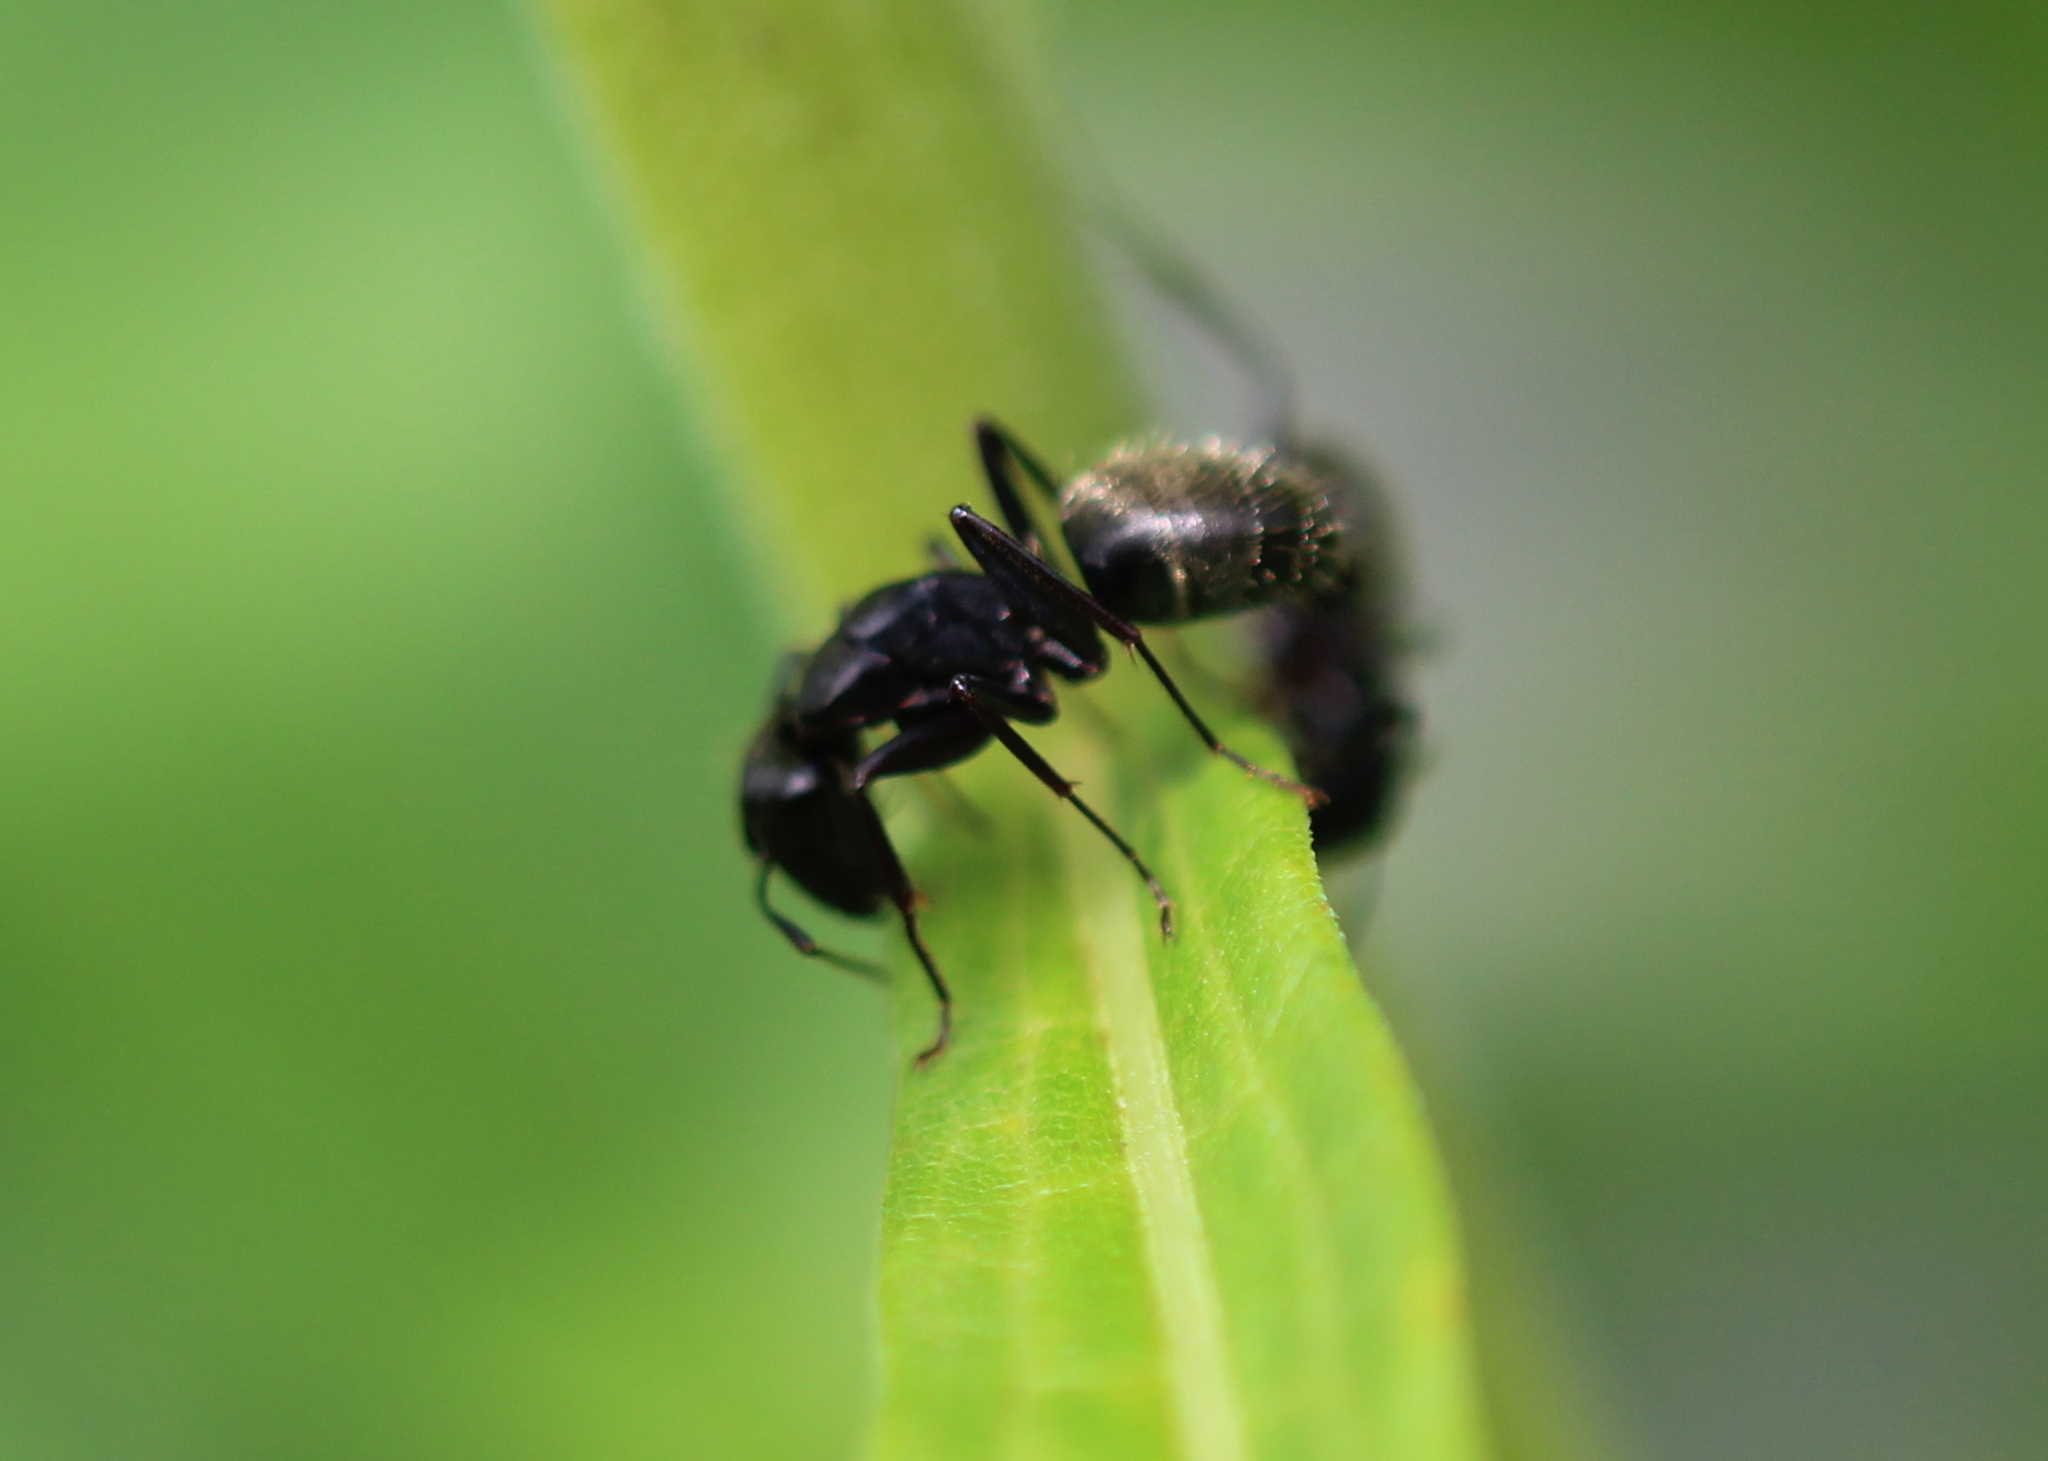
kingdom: Animalia
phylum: Arthropoda
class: Insecta
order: Hymenoptera
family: Formicidae
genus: Camponotus
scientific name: Camponotus pennsylvanicus
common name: Black carpenter ant
